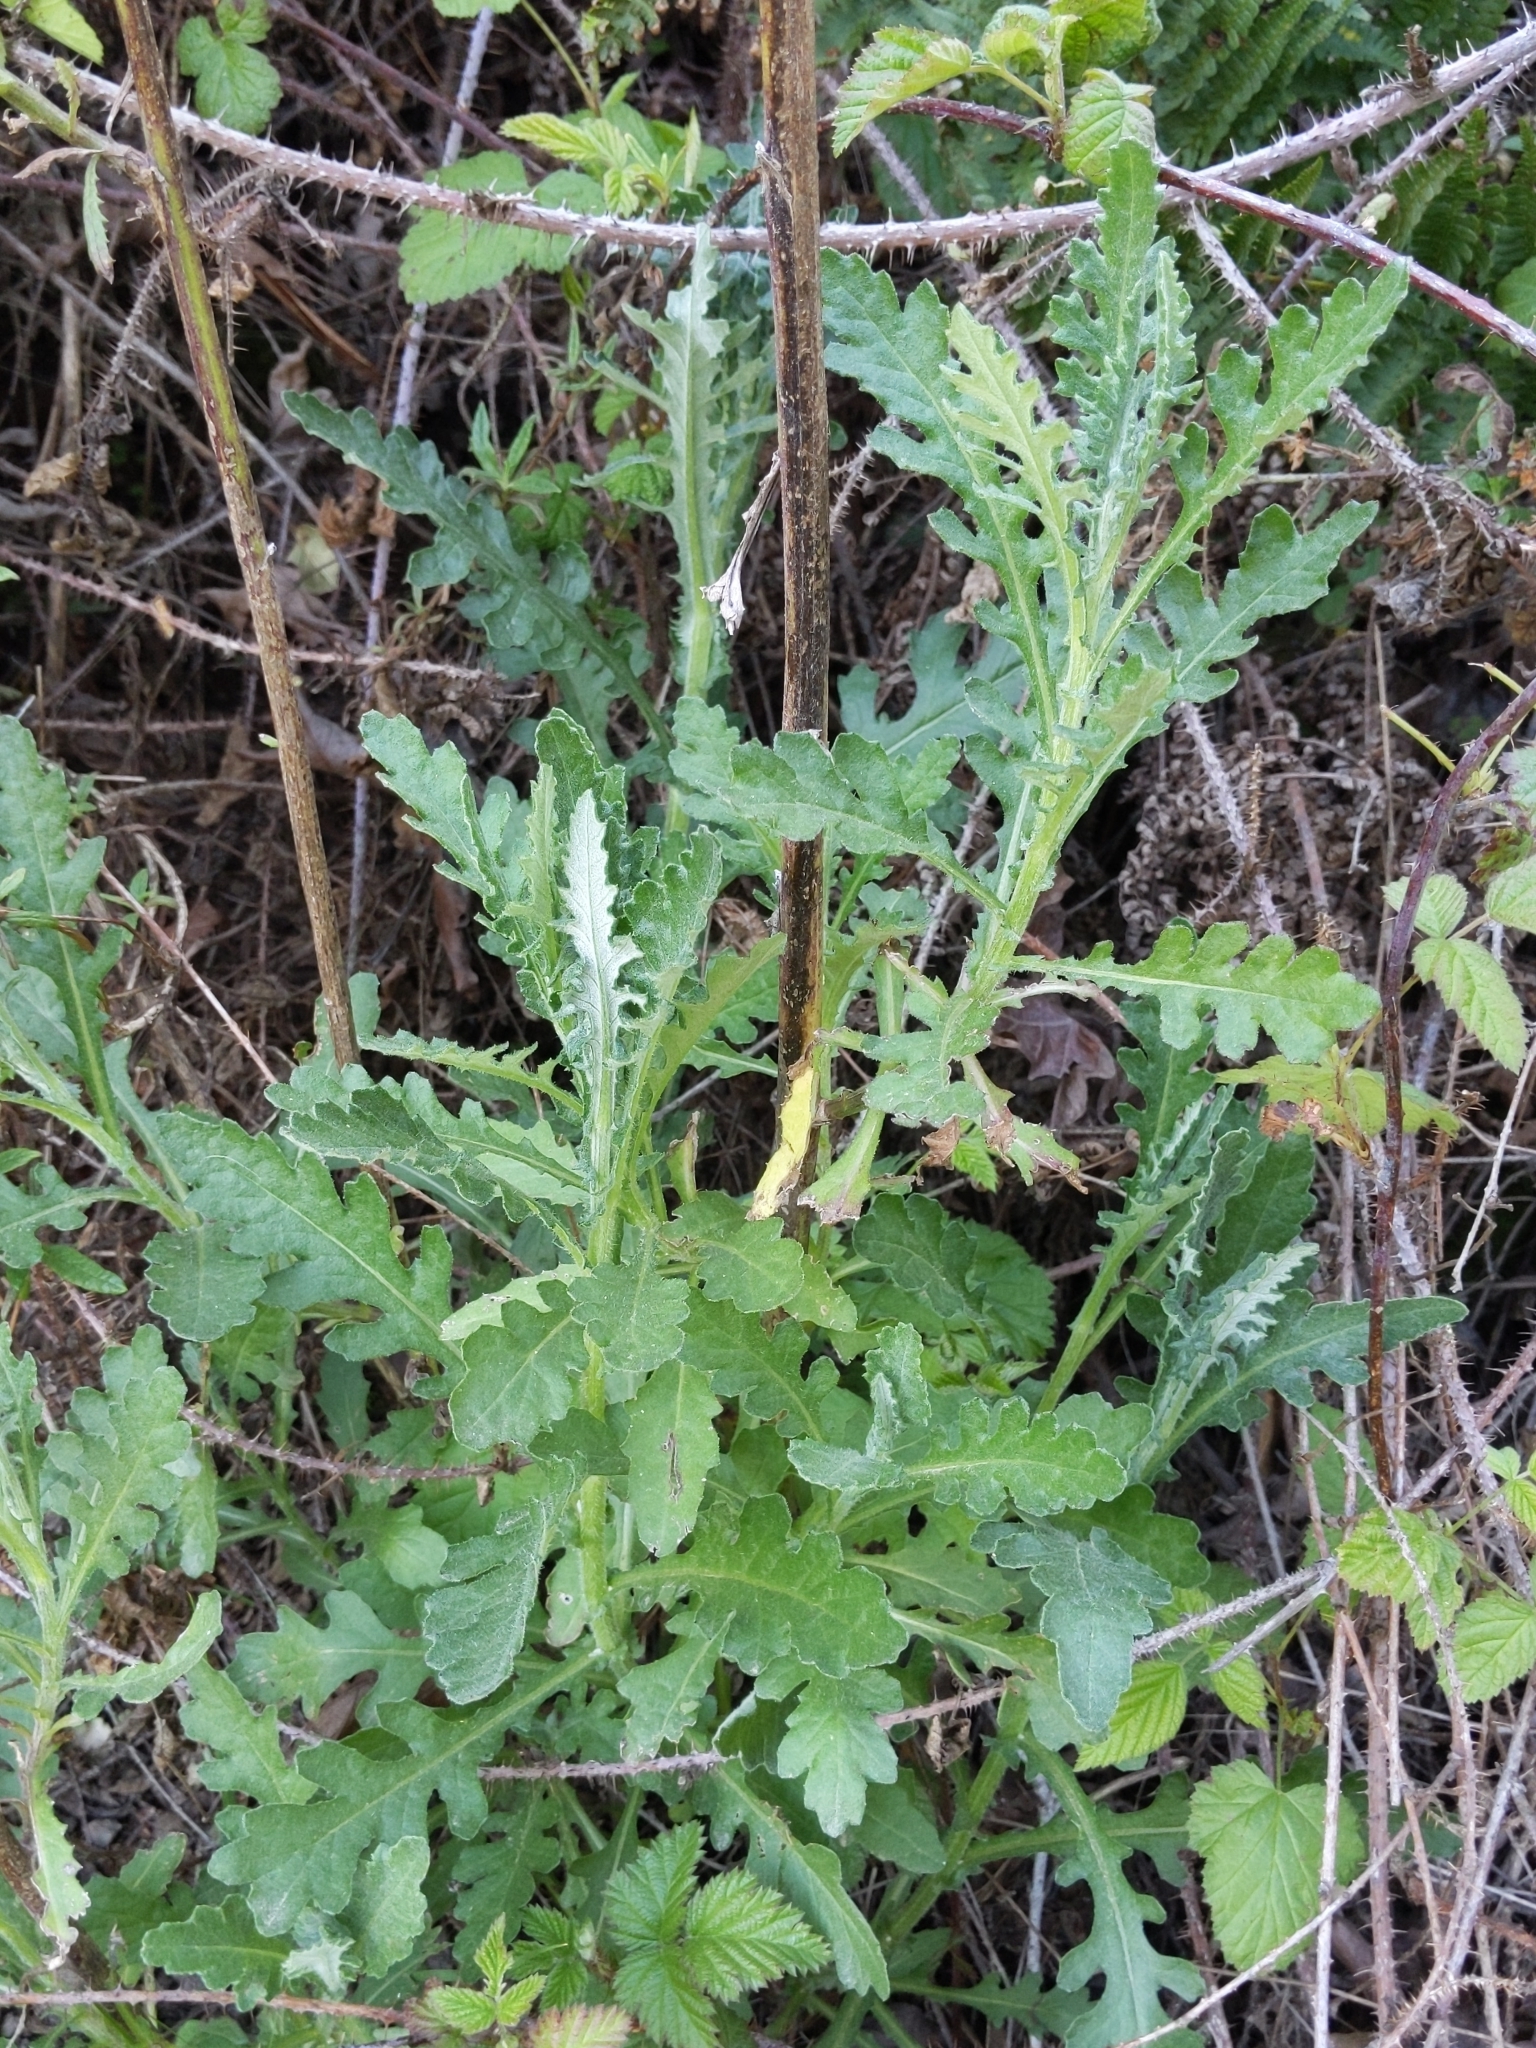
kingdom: Plantae
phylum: Tracheophyta
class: Magnoliopsida
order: Asterales
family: Asteraceae
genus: Senecio
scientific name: Senecio glomeratus
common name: Cutleaf burnweed
